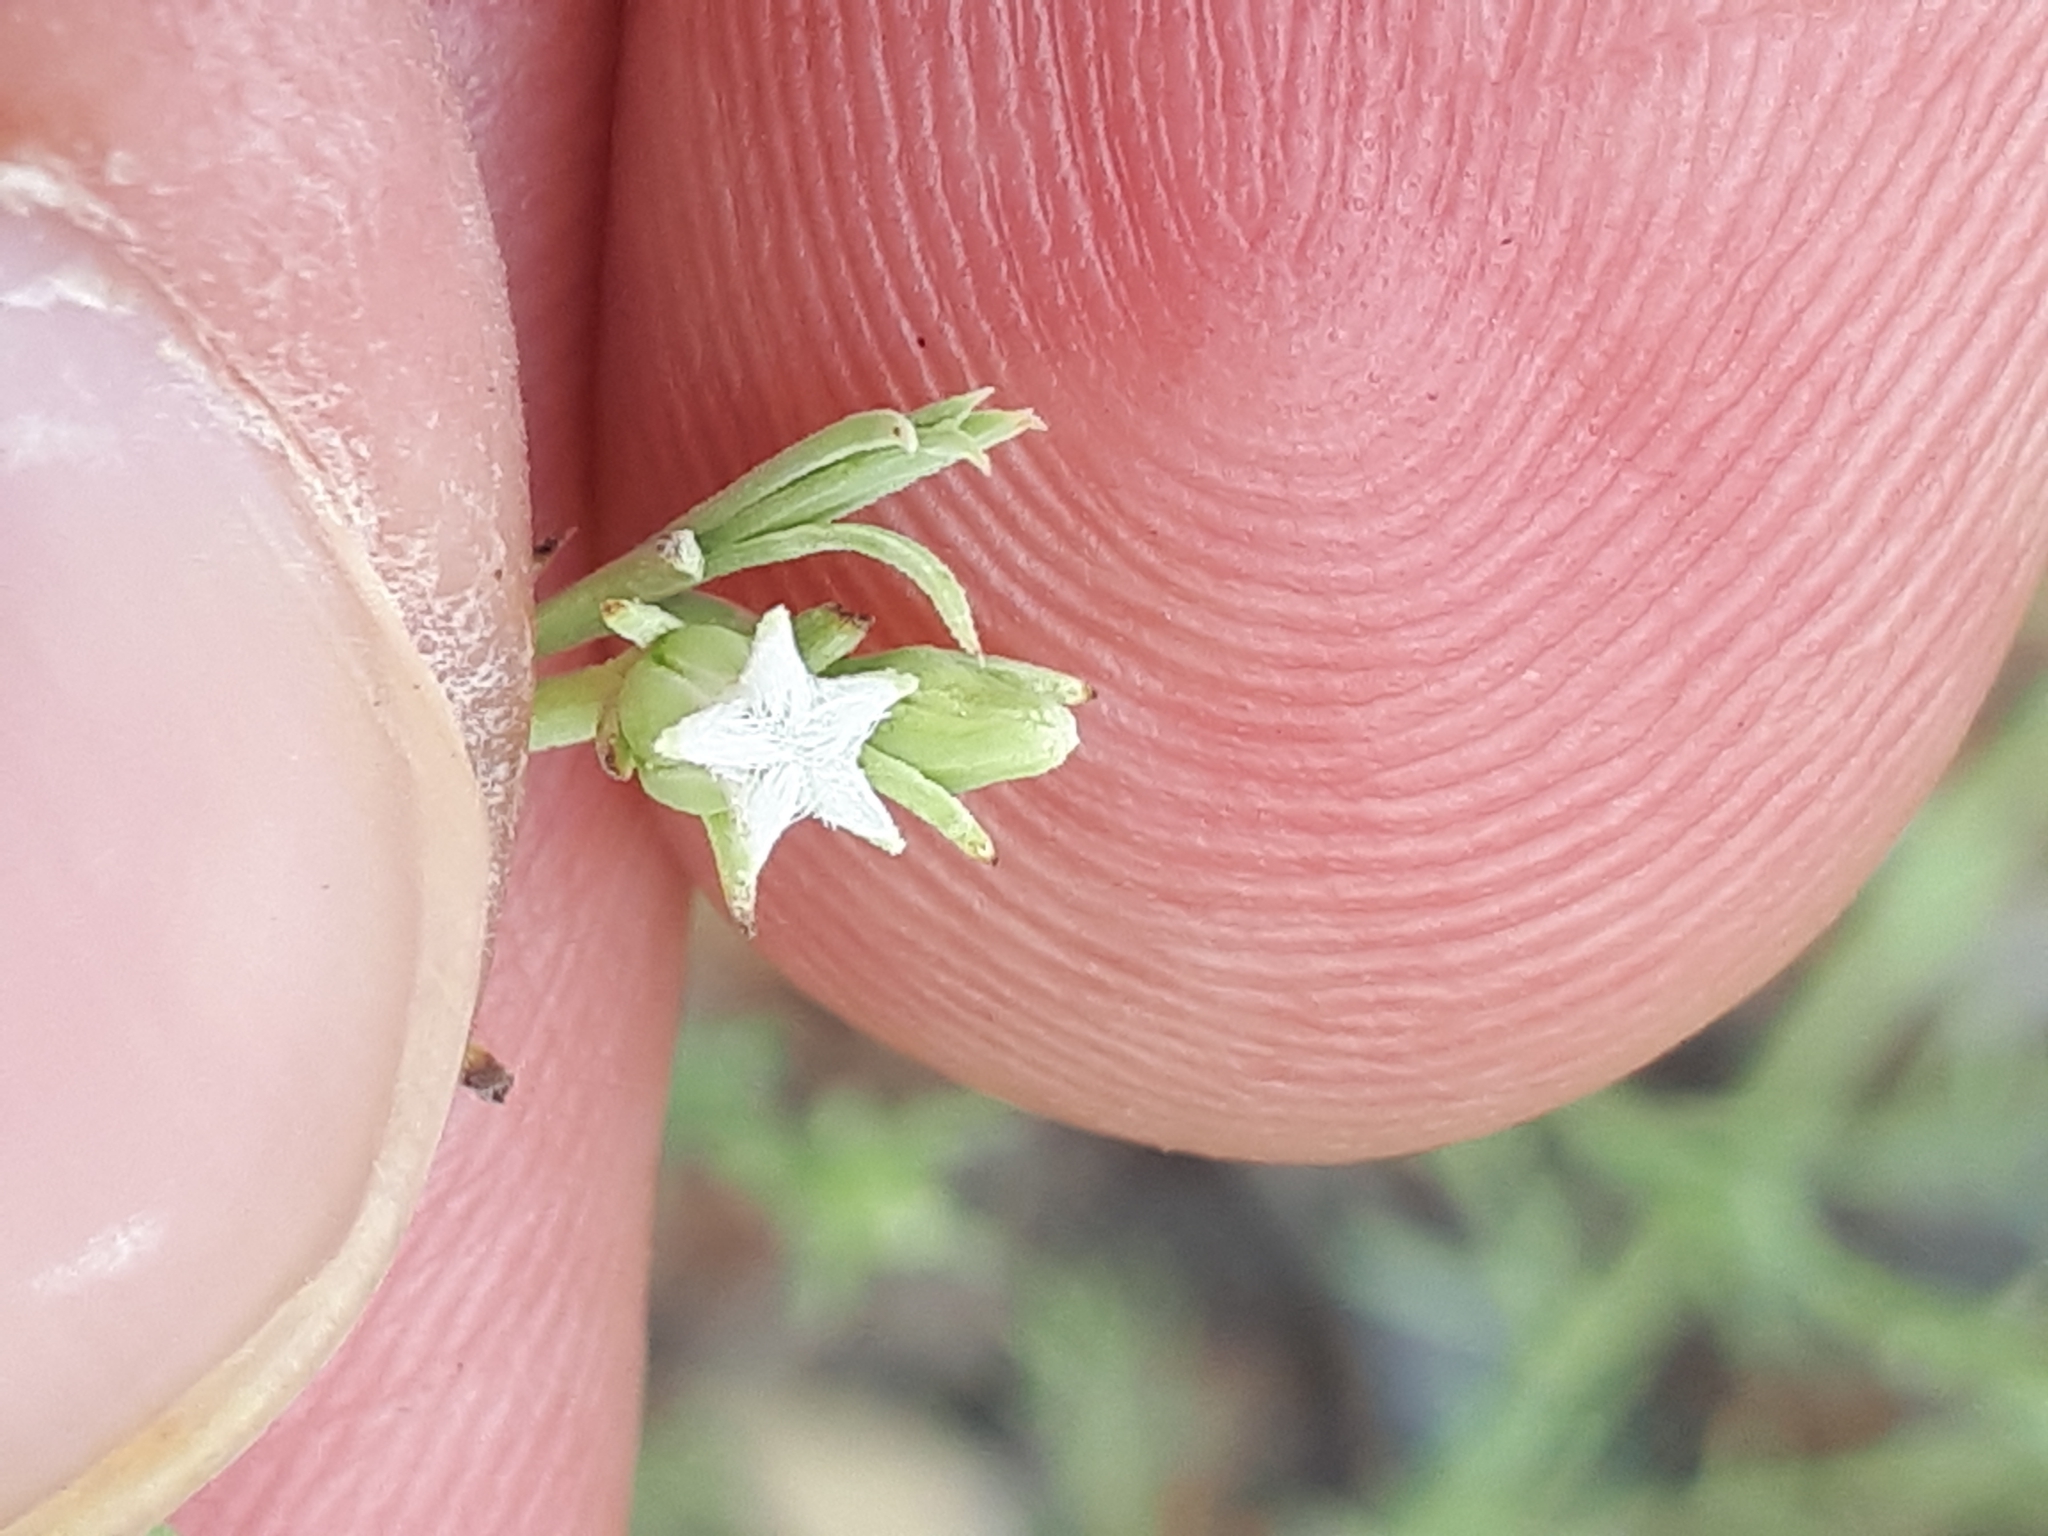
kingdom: Plantae
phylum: Tracheophyta
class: Magnoliopsida
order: Santalales
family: Thesiaceae
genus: Thesium
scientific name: Thesium celatum
